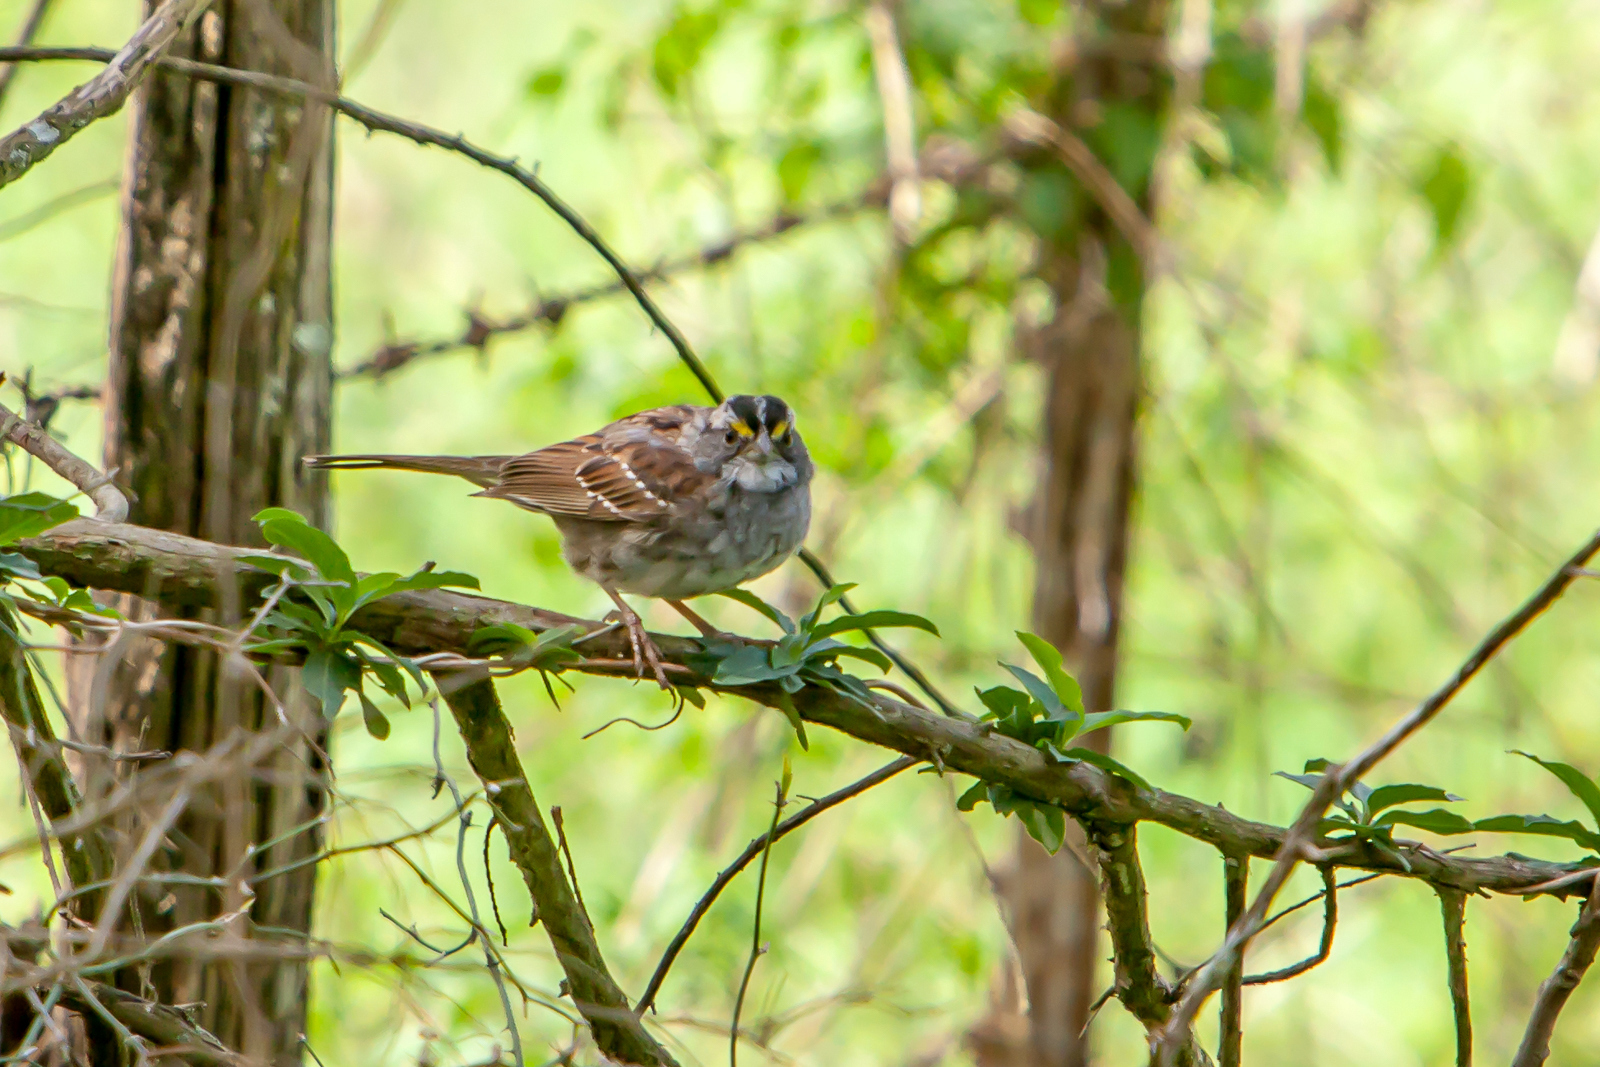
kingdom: Animalia
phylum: Chordata
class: Aves
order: Passeriformes
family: Passerellidae
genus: Zonotrichia
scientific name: Zonotrichia albicollis
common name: White-throated sparrow
